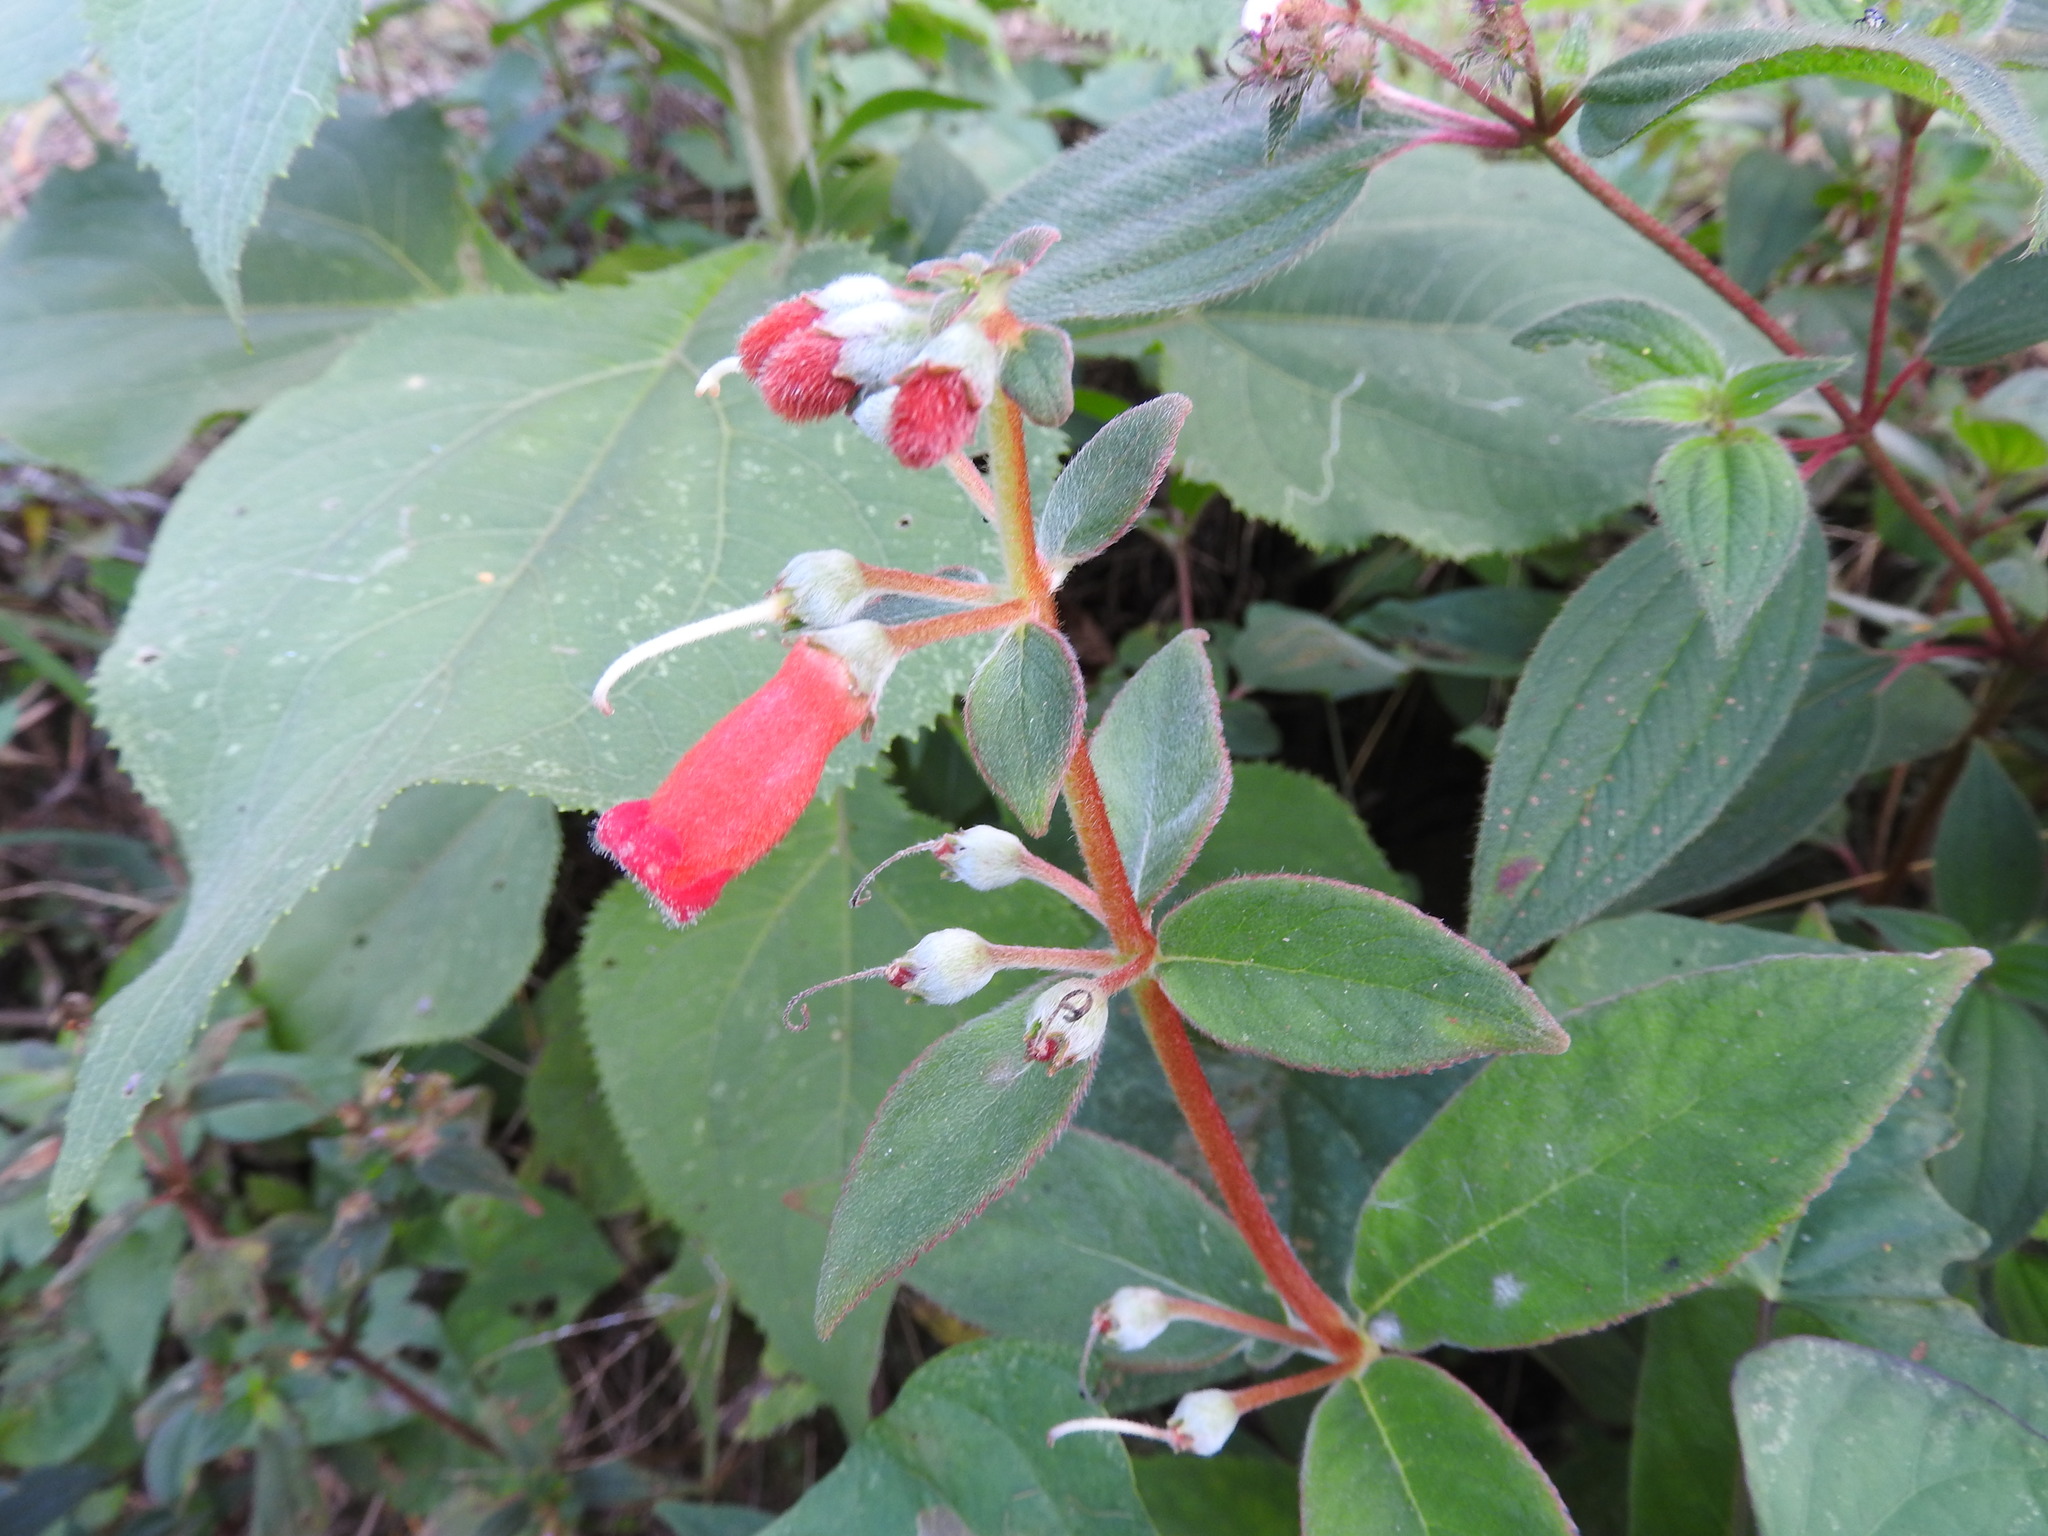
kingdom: Plantae
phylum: Tracheophyta
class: Magnoliopsida
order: Lamiales
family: Gesneriaceae
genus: Kohleria
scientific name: Kohleria spicata
